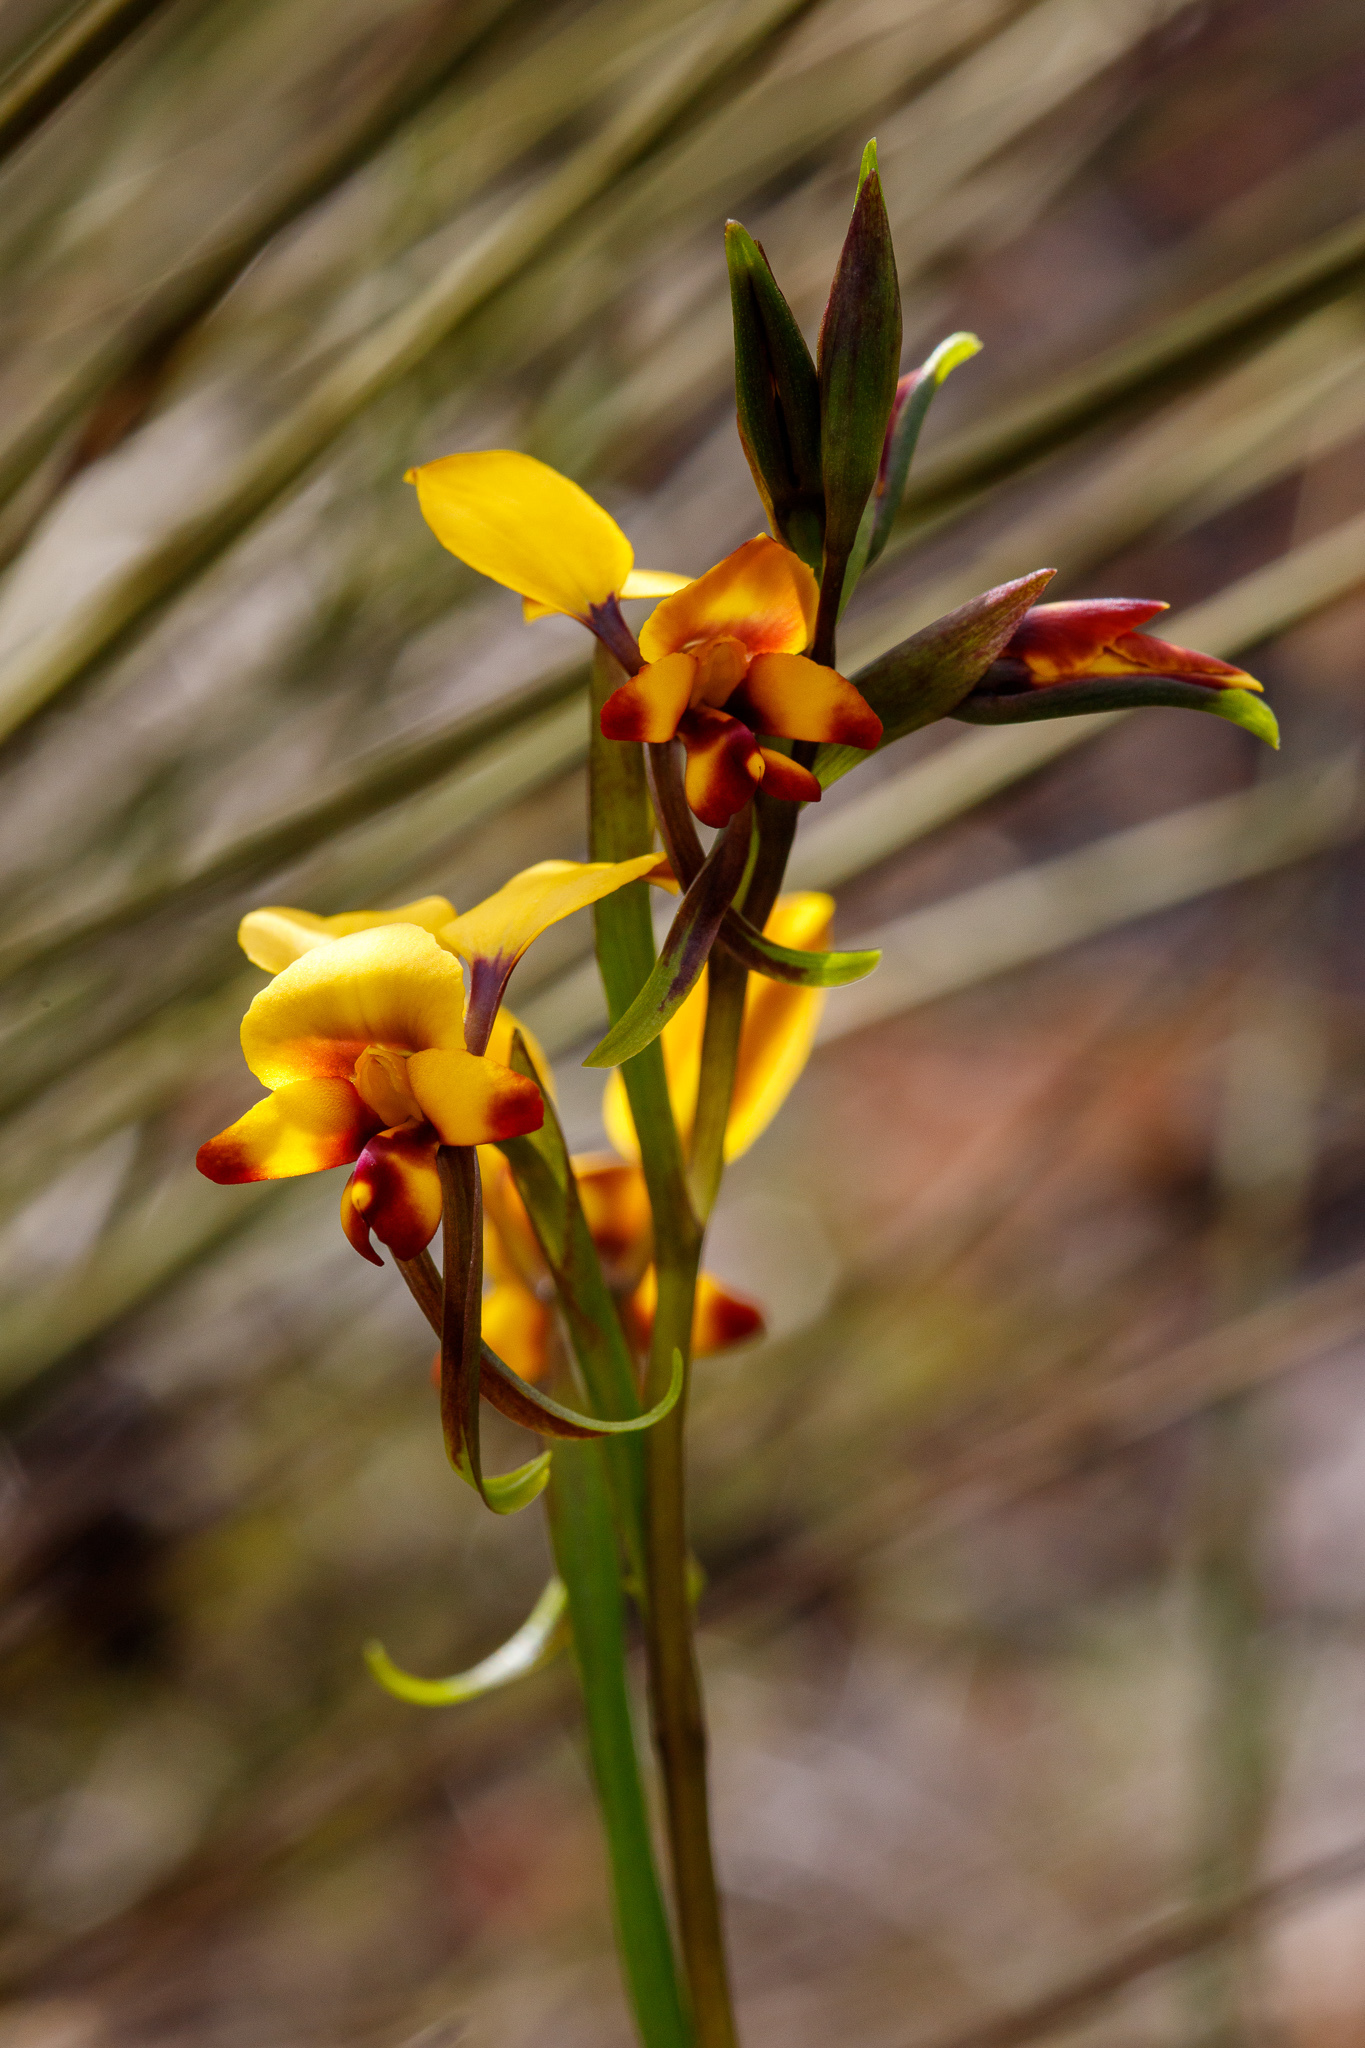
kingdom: Plantae
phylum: Tracheophyta
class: Liliopsida
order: Asparagales
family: Orchidaceae
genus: Diuris
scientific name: Diuris perialla
